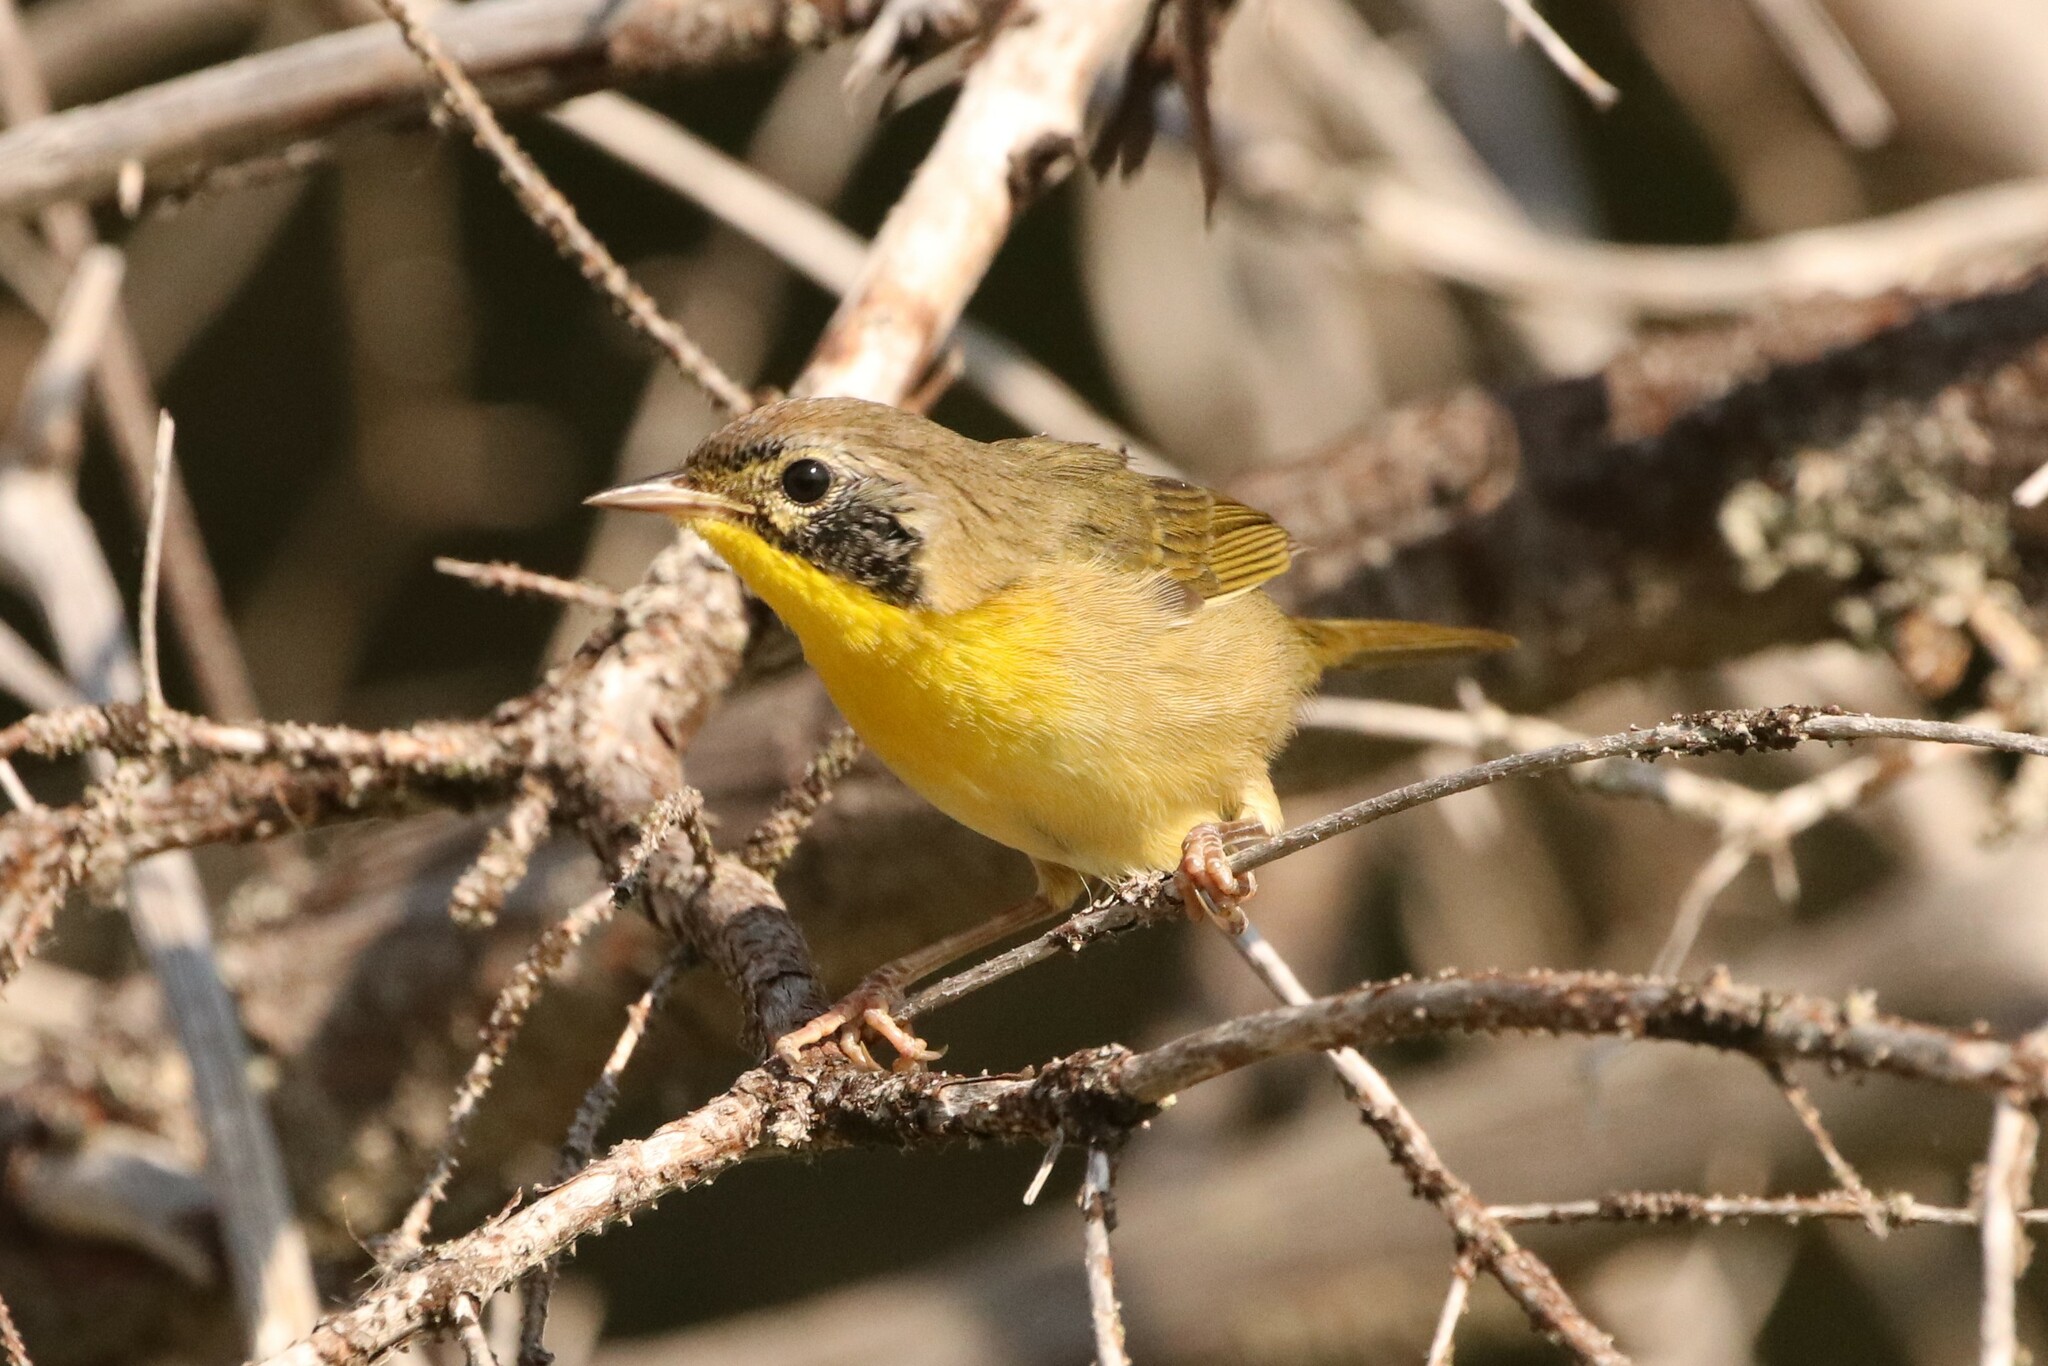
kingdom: Animalia
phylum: Chordata
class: Aves
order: Passeriformes
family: Parulidae
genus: Geothlypis
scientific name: Geothlypis trichas
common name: Common yellowthroat
